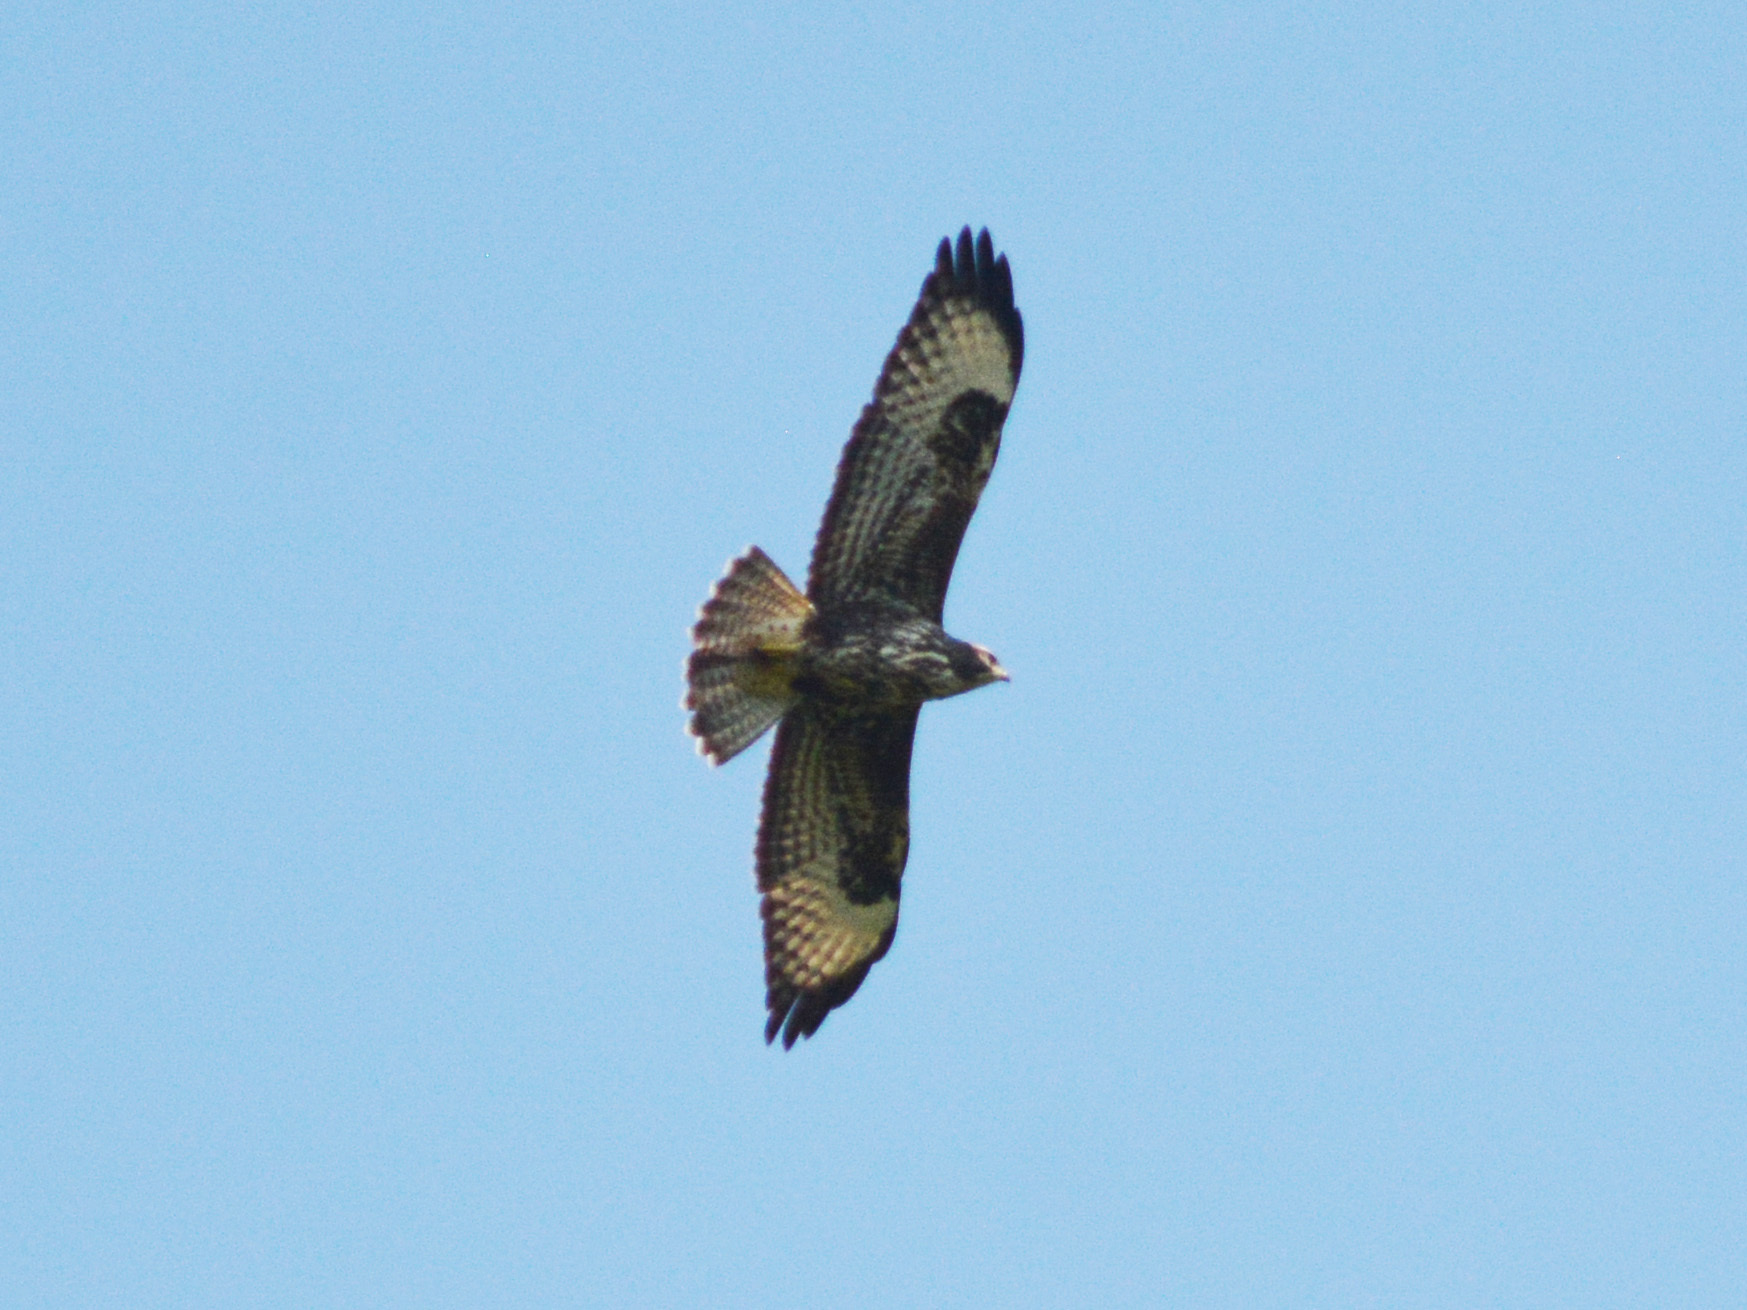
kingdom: Animalia
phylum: Chordata
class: Aves
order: Accipitriformes
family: Accipitridae
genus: Buteo
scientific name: Buteo buteo
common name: Common buzzard
